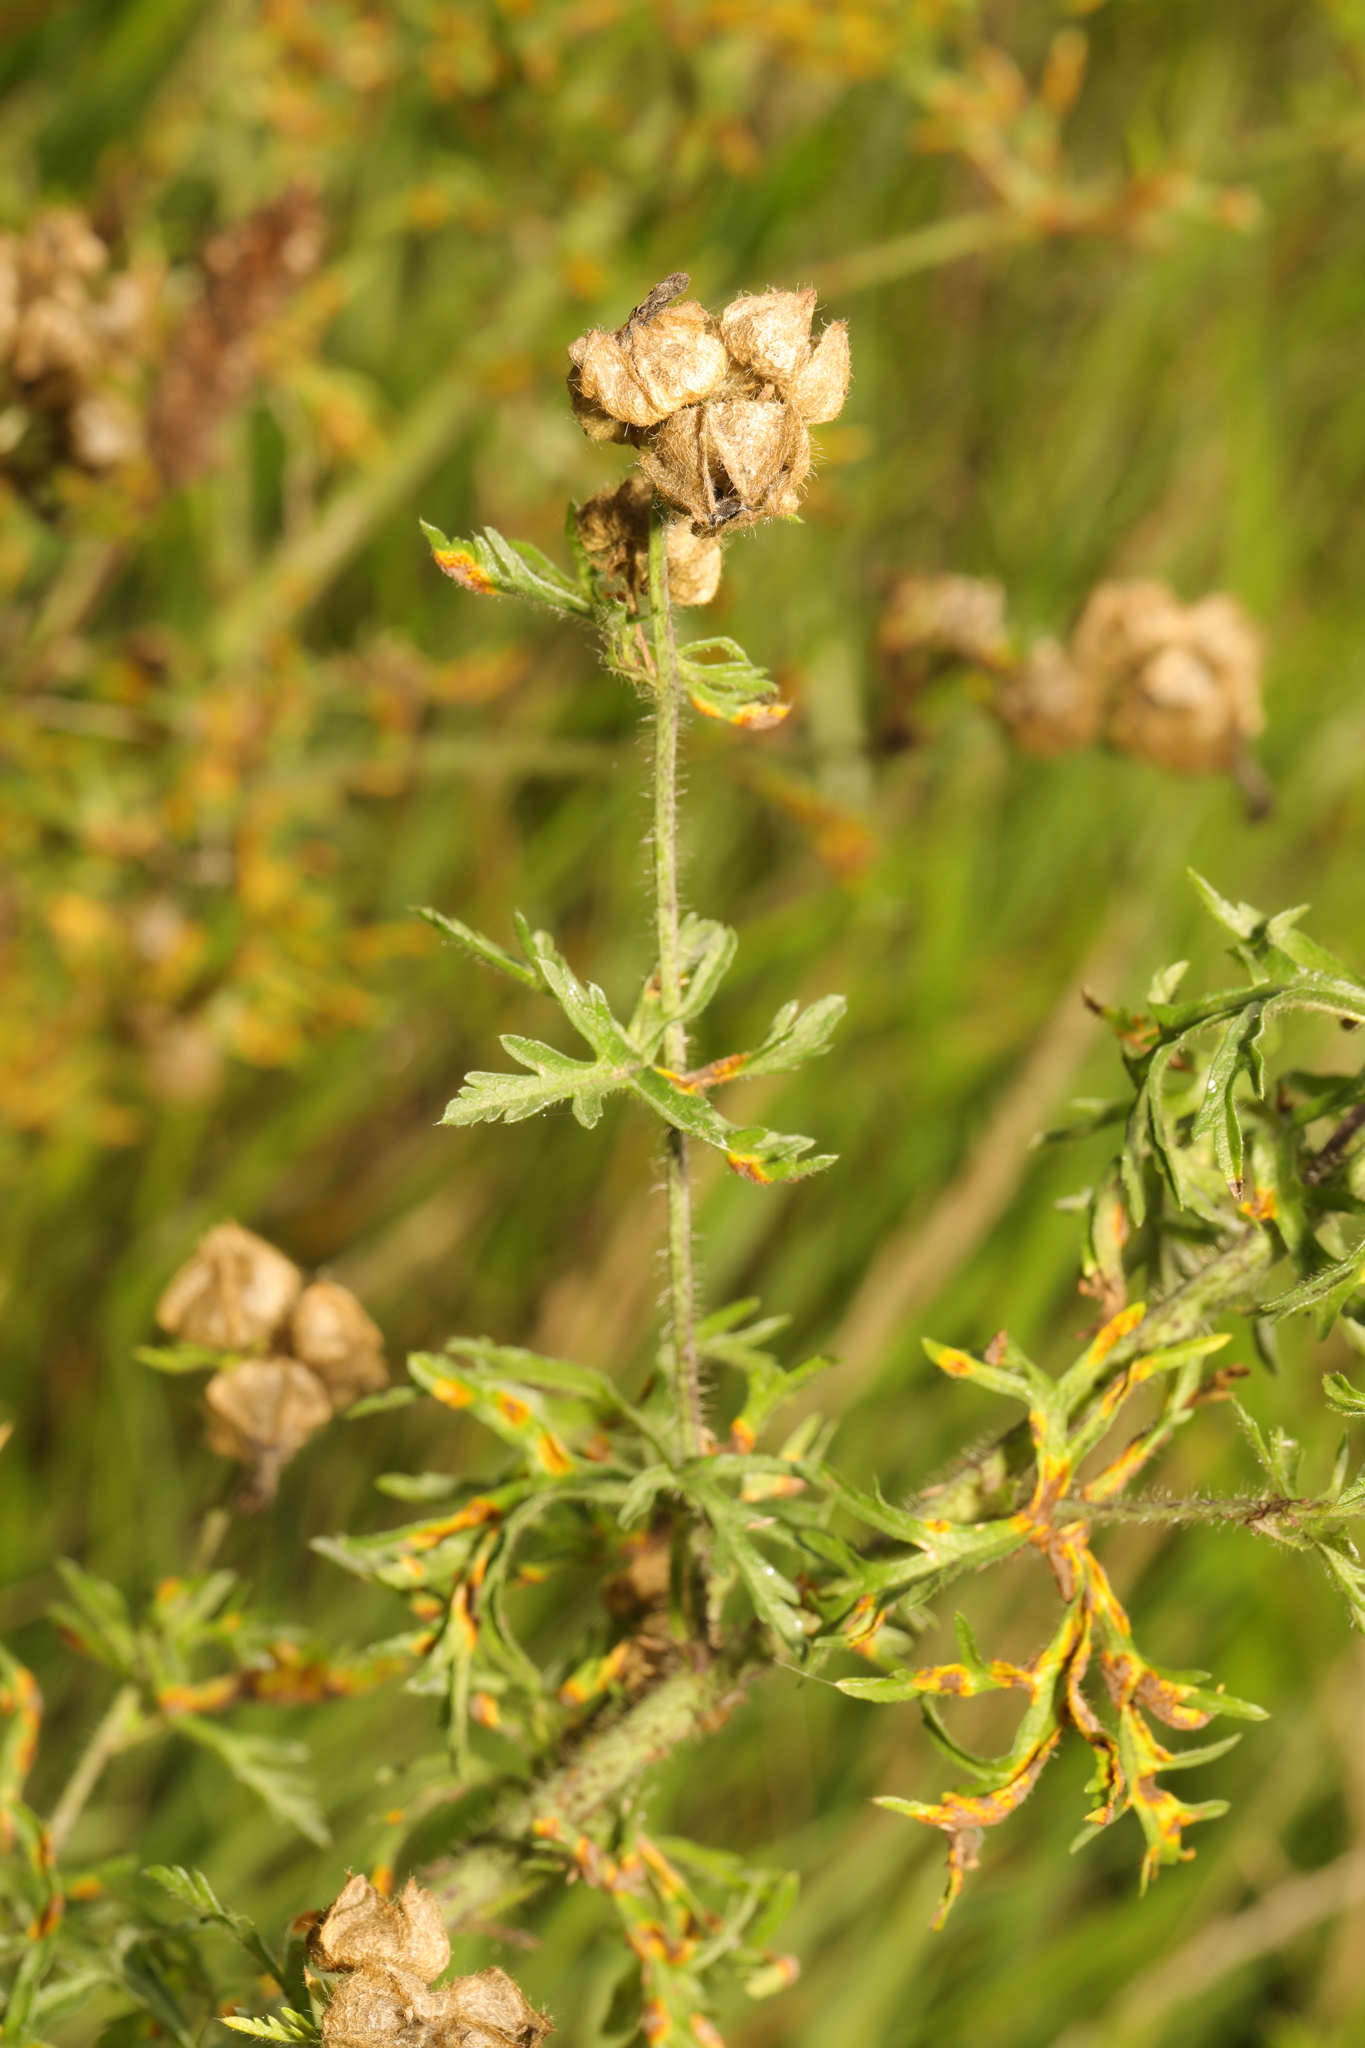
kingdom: Plantae
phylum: Tracheophyta
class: Magnoliopsida
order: Malvales
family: Malvaceae
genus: Malva
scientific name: Malva moschata
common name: Musk mallow
